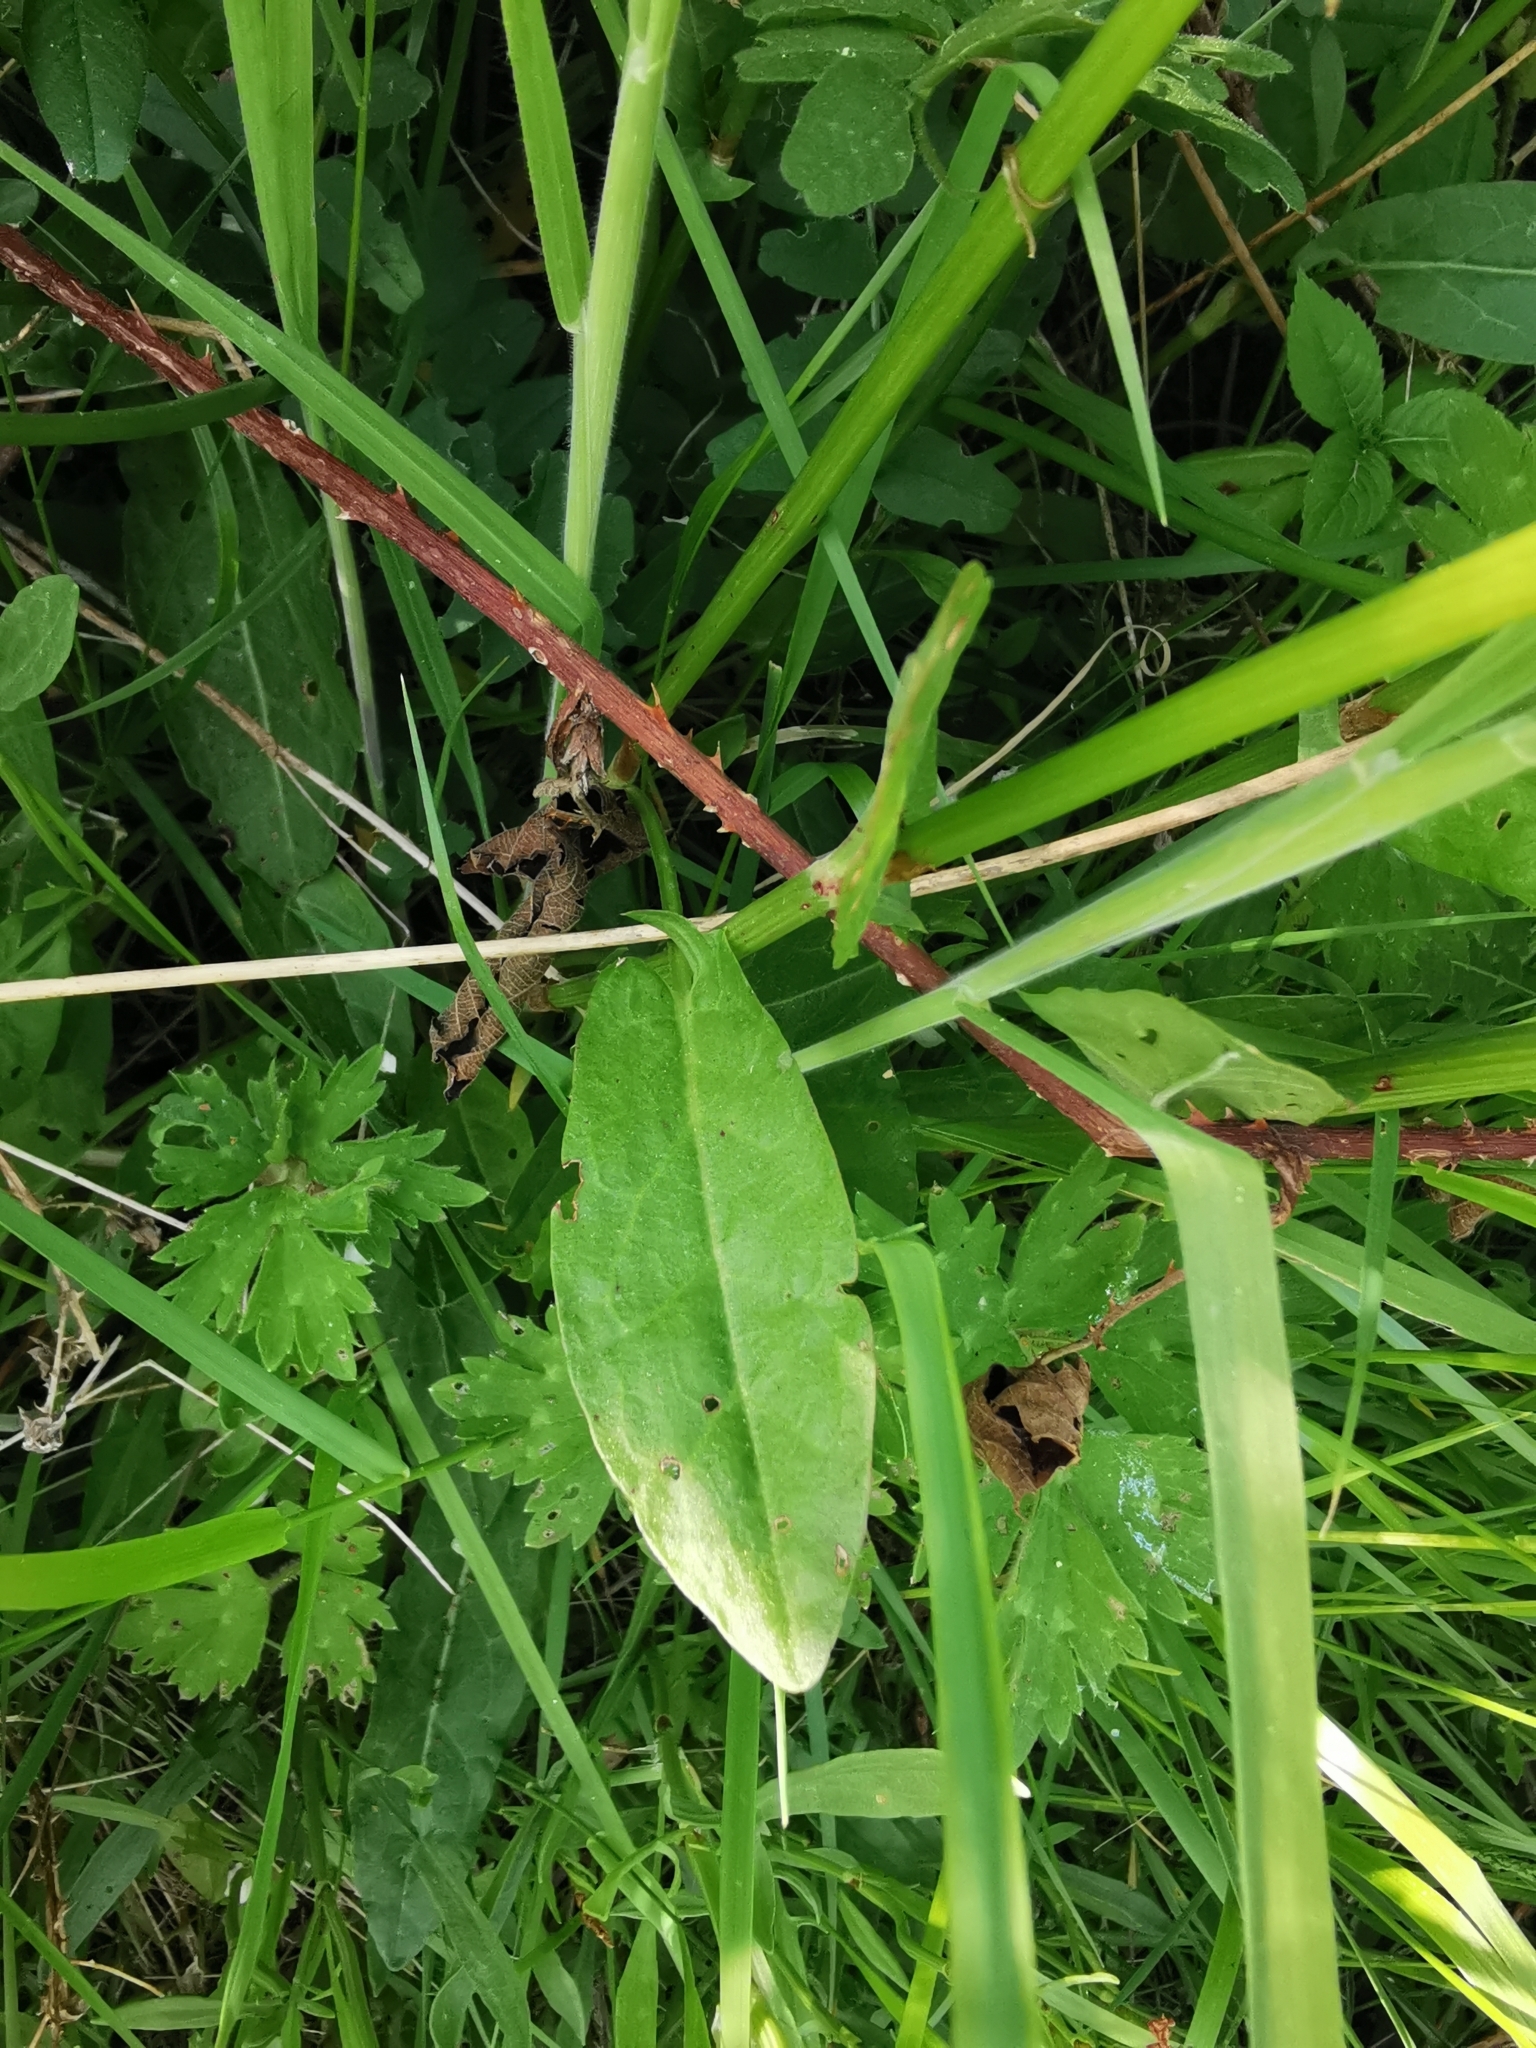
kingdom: Plantae
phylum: Tracheophyta
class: Magnoliopsida
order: Caryophyllales
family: Polygonaceae
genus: Rumex
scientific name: Rumex acetosa
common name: Garden sorrel
